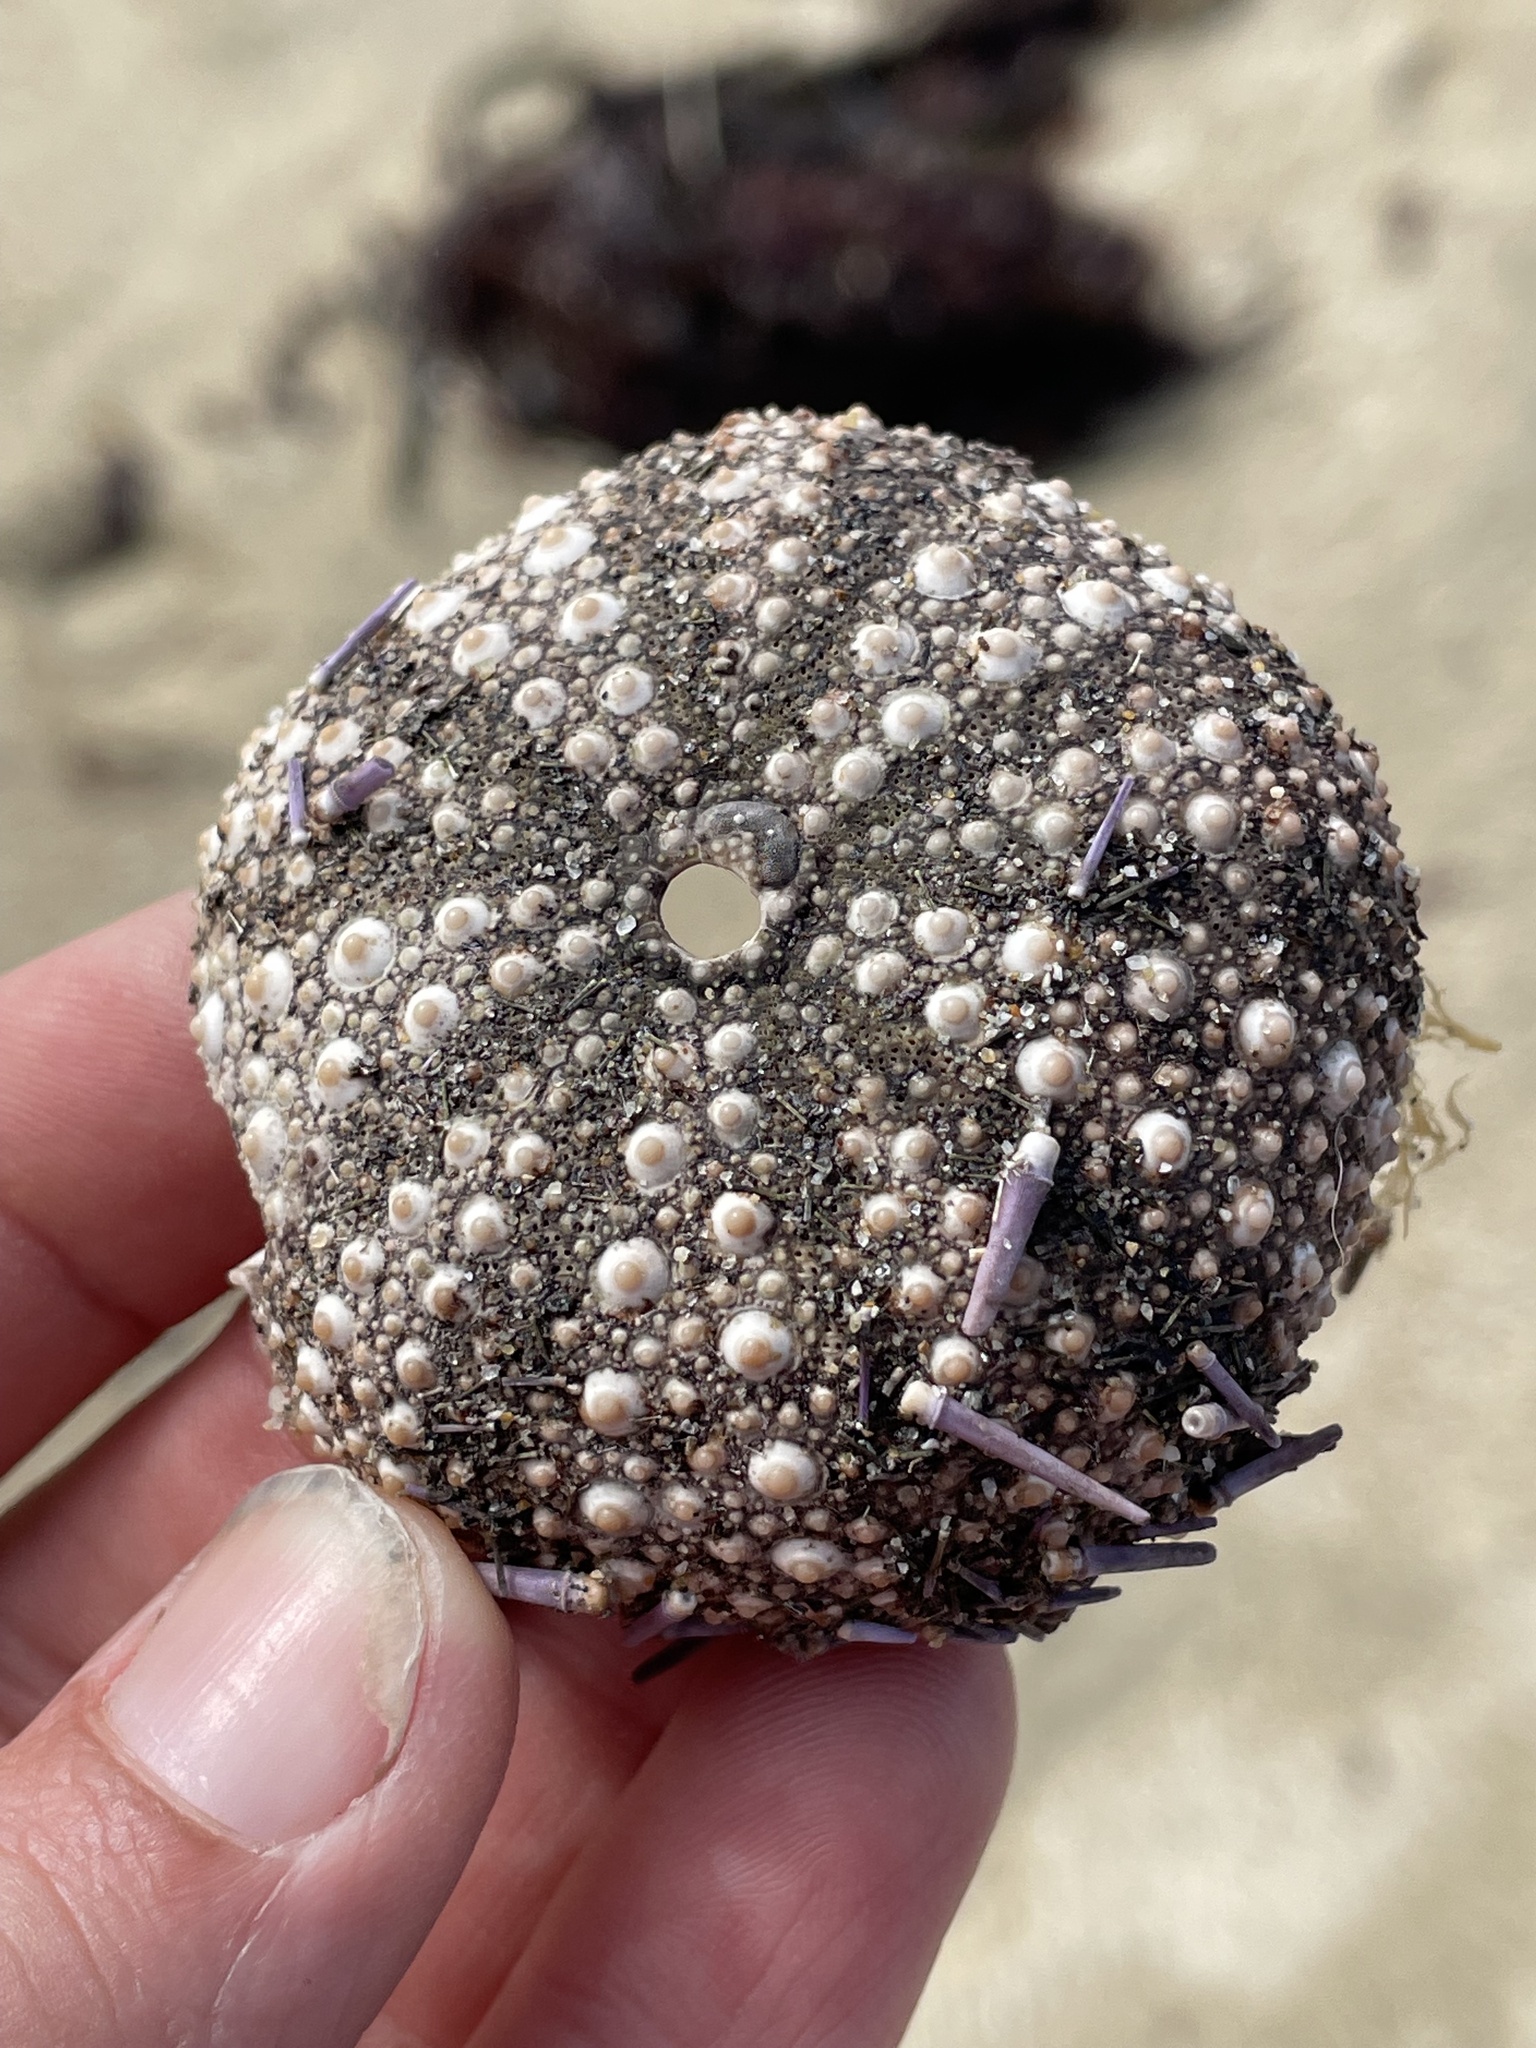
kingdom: Animalia
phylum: Echinodermata
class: Echinoidea
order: Camarodonta
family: Strongylocentrotidae
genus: Strongylocentrotus
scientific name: Strongylocentrotus purpuratus
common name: Purple sea urchin
